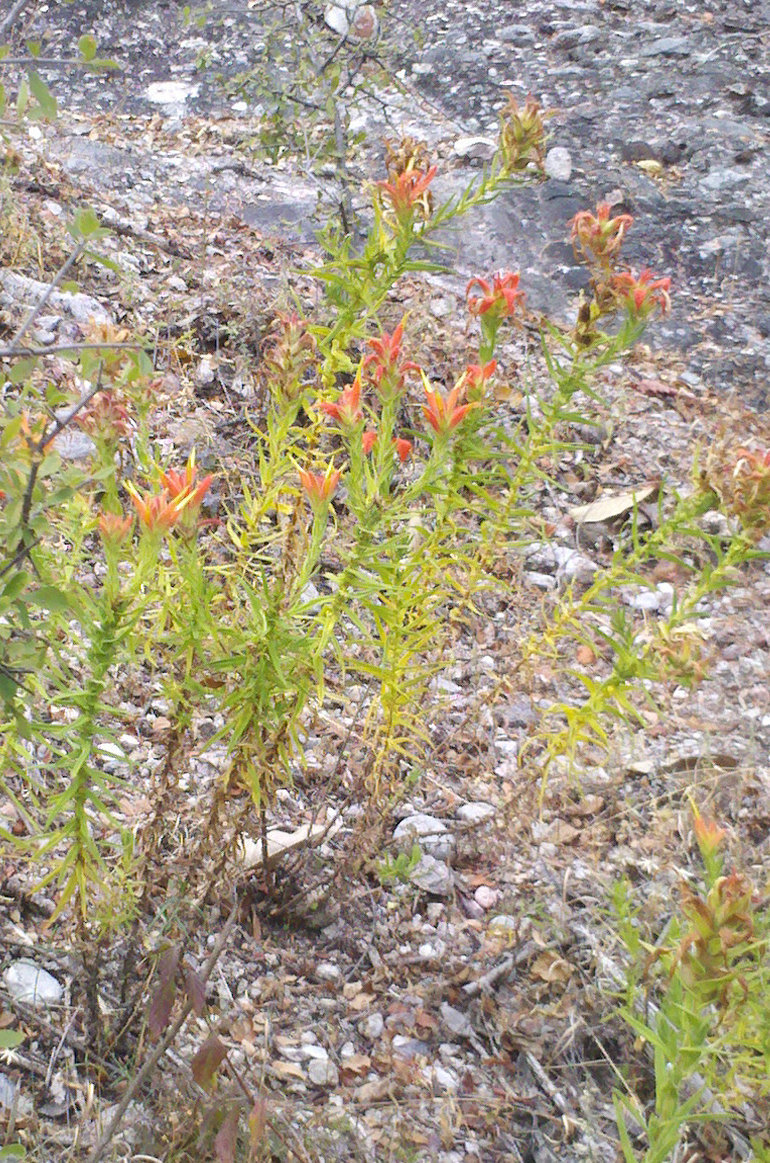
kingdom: Plantae
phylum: Tracheophyta
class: Magnoliopsida
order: Lamiales
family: Orobanchaceae
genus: Castilleja
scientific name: Castilleja auriculata
